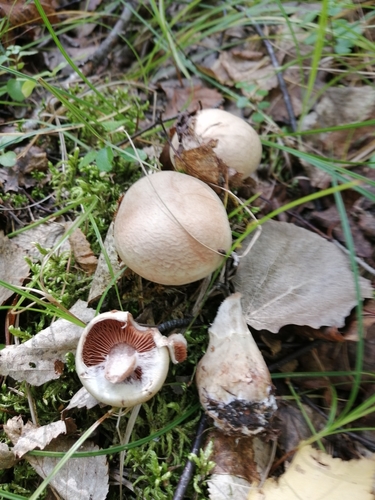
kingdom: Fungi
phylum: Basidiomycota
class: Agaricomycetes
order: Agaricales
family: Cortinariaceae
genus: Cortinarius
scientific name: Cortinarius
